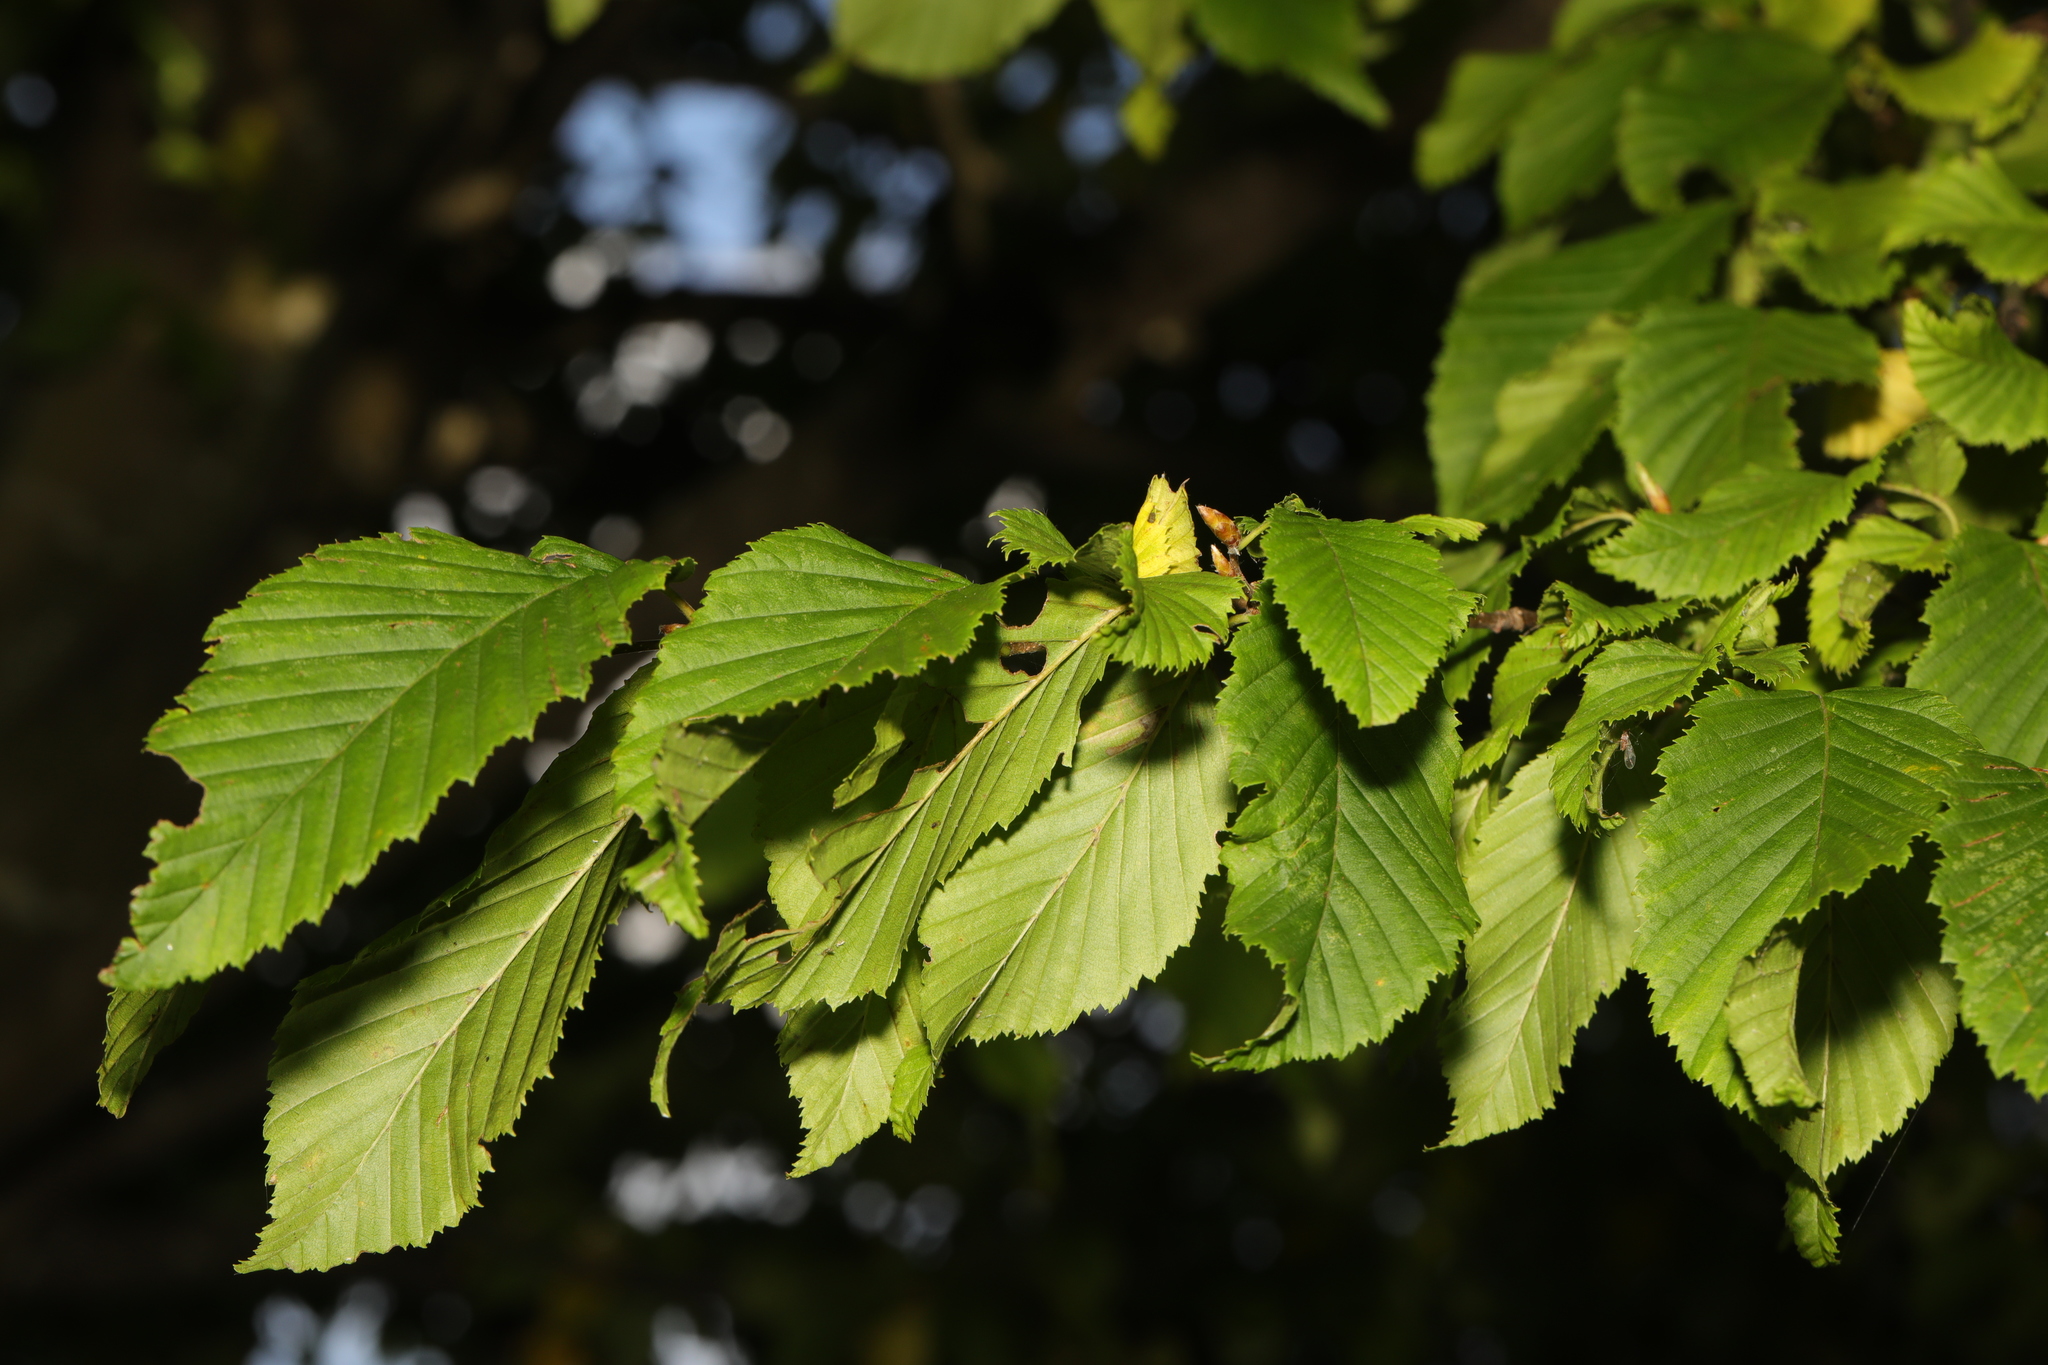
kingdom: Plantae
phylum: Tracheophyta
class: Magnoliopsida
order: Fagales
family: Betulaceae
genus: Carpinus
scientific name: Carpinus betulus
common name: Hornbeam
